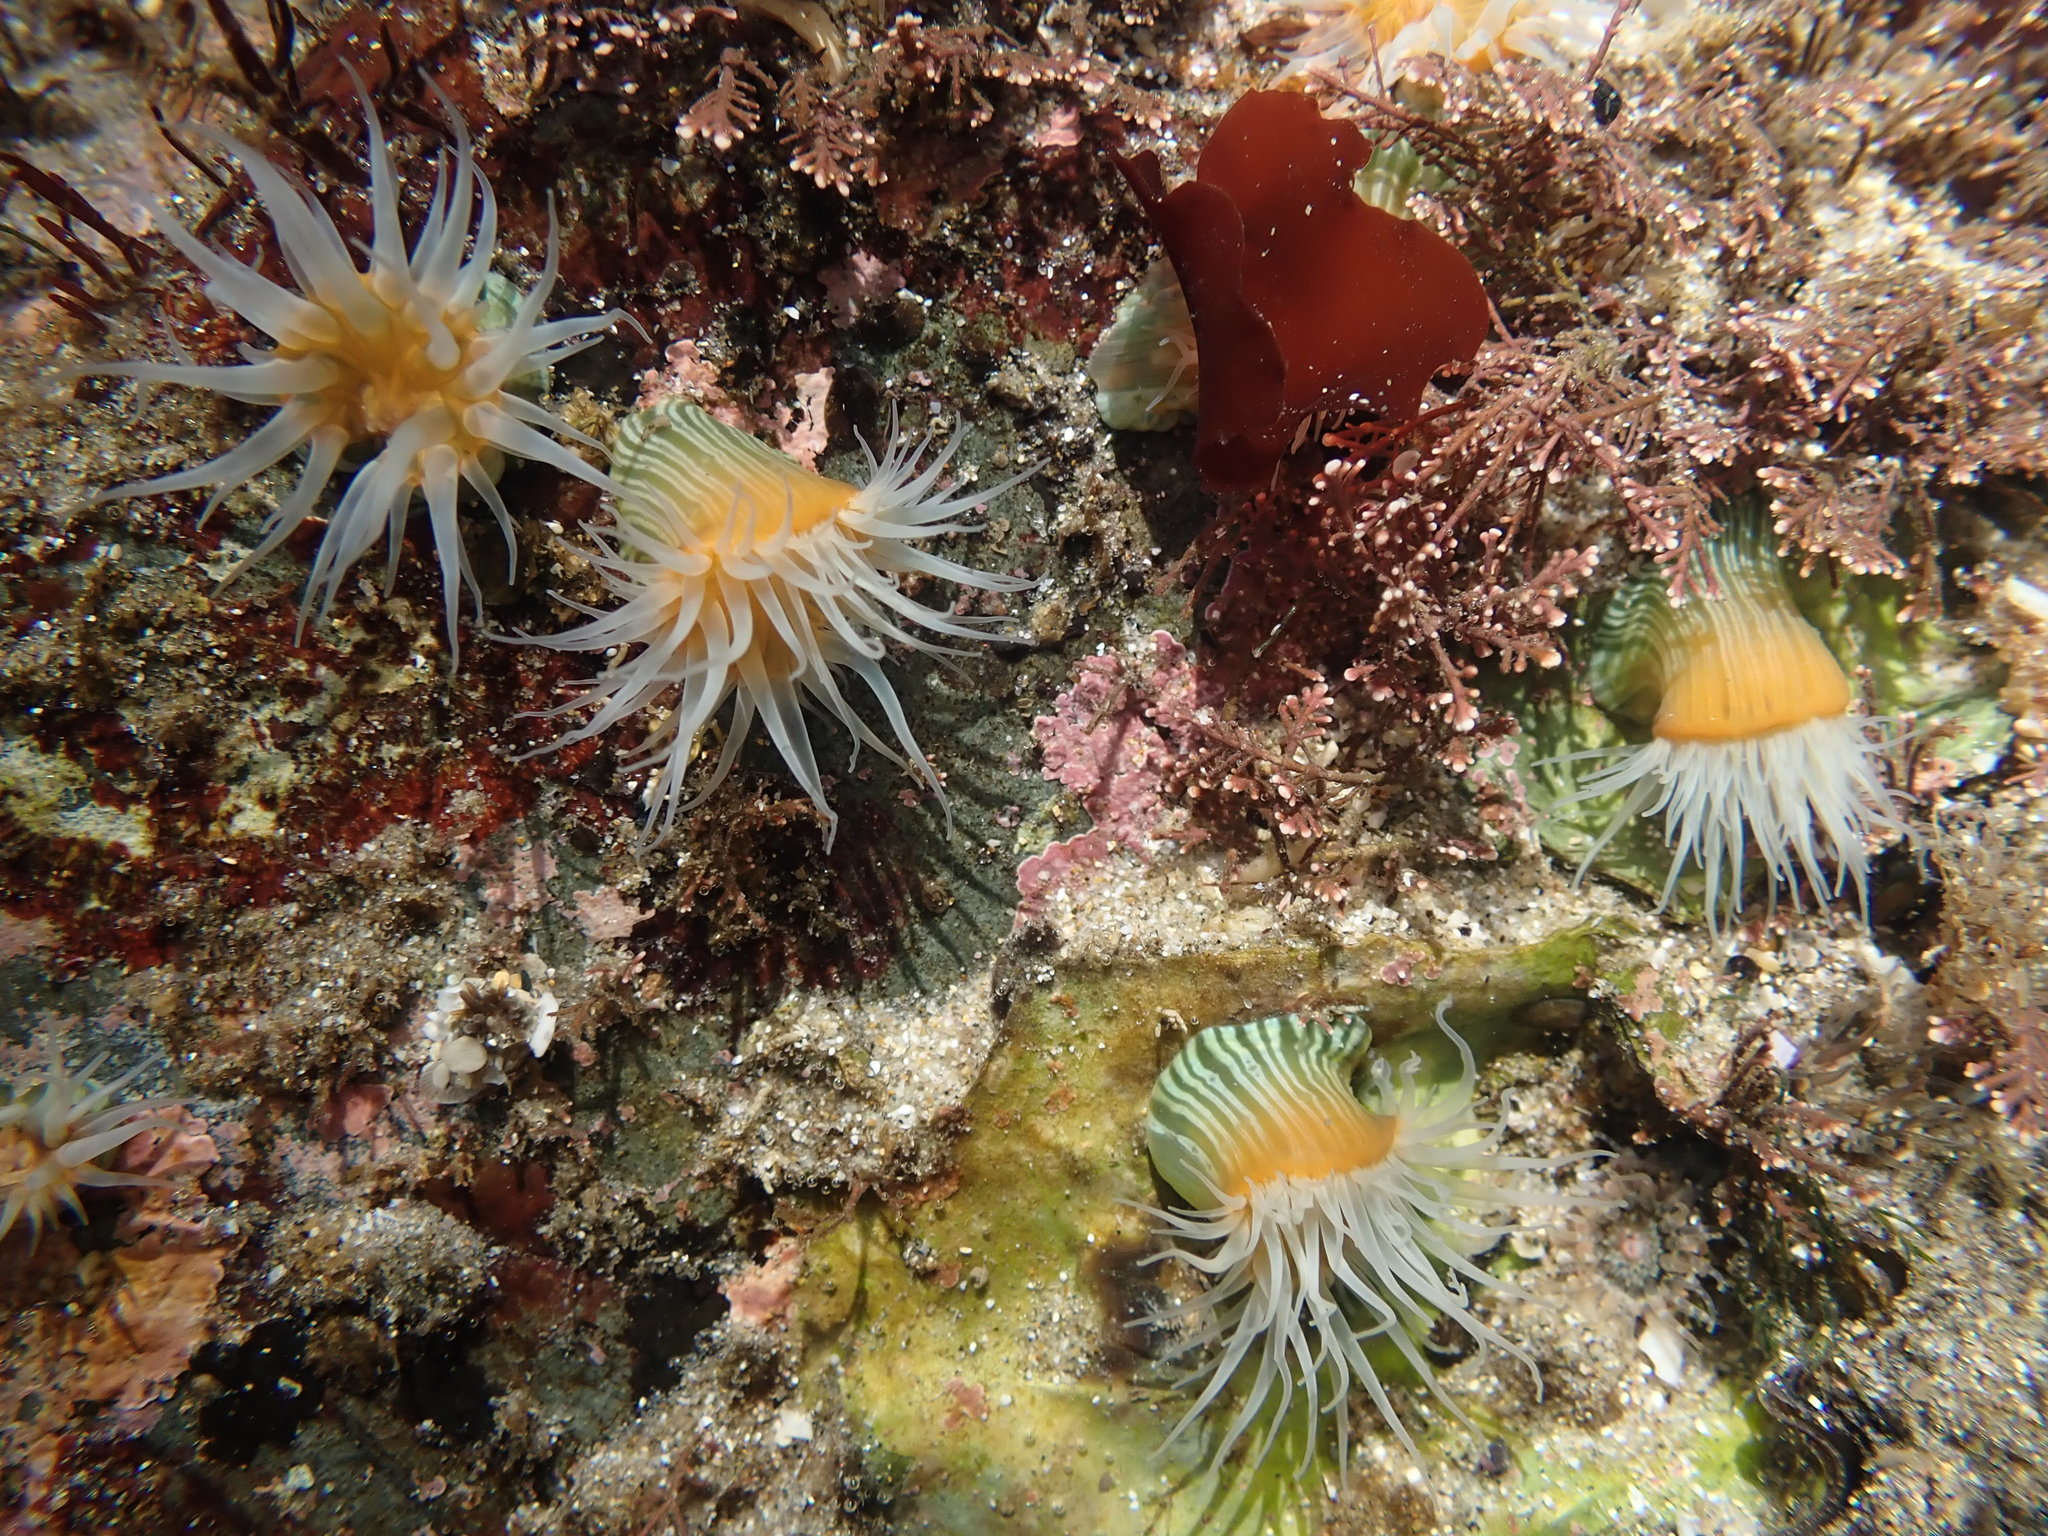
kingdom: Animalia
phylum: Cnidaria
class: Anthozoa
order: Actiniaria
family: Sagartiidae
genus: Anthothoe
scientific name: Anthothoe albocincta
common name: Orange striped anemone
